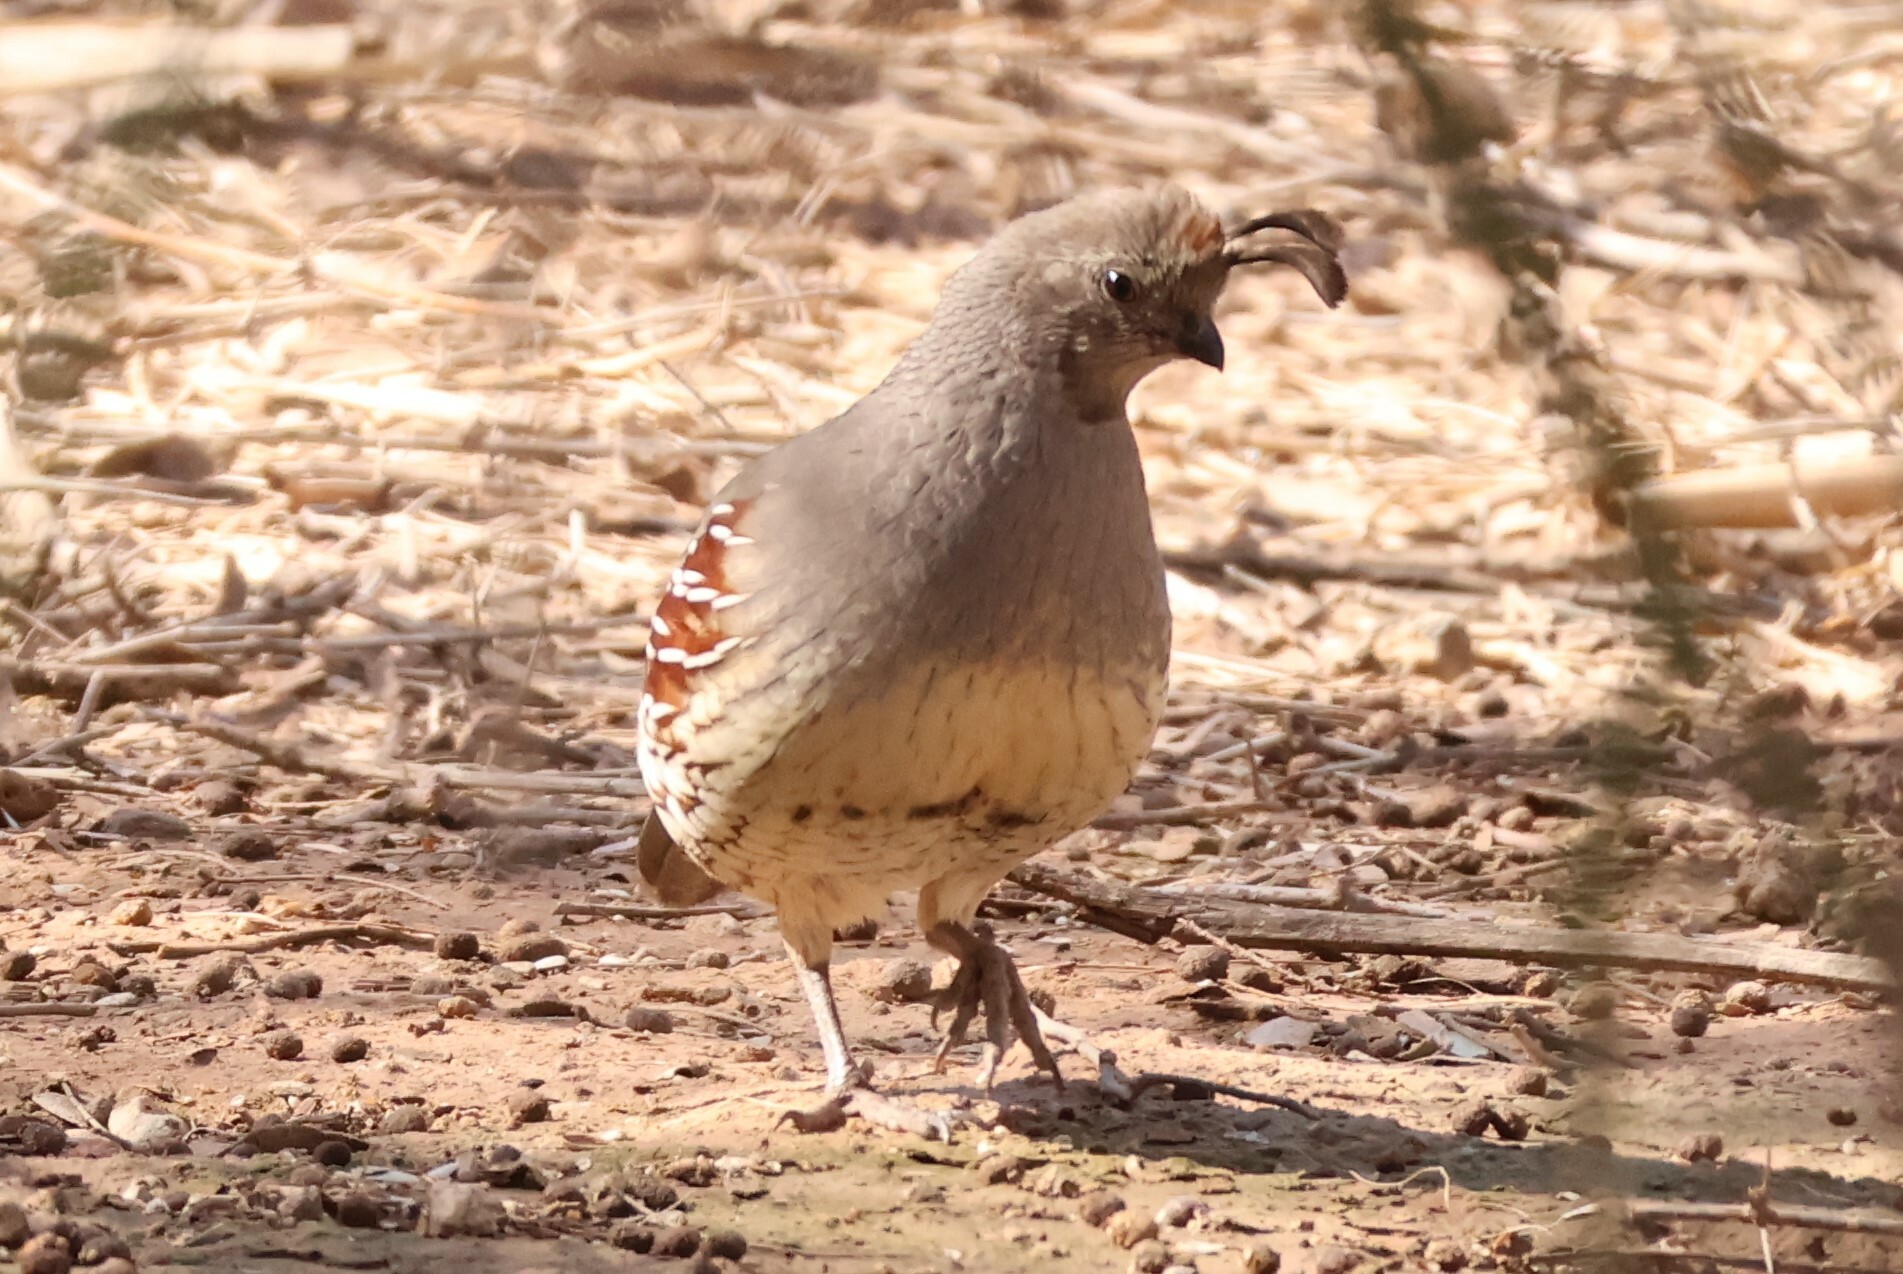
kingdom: Animalia
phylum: Chordata
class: Aves
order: Galliformes
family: Odontophoridae
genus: Callipepla
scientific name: Callipepla gambelii
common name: Gambel's quail
